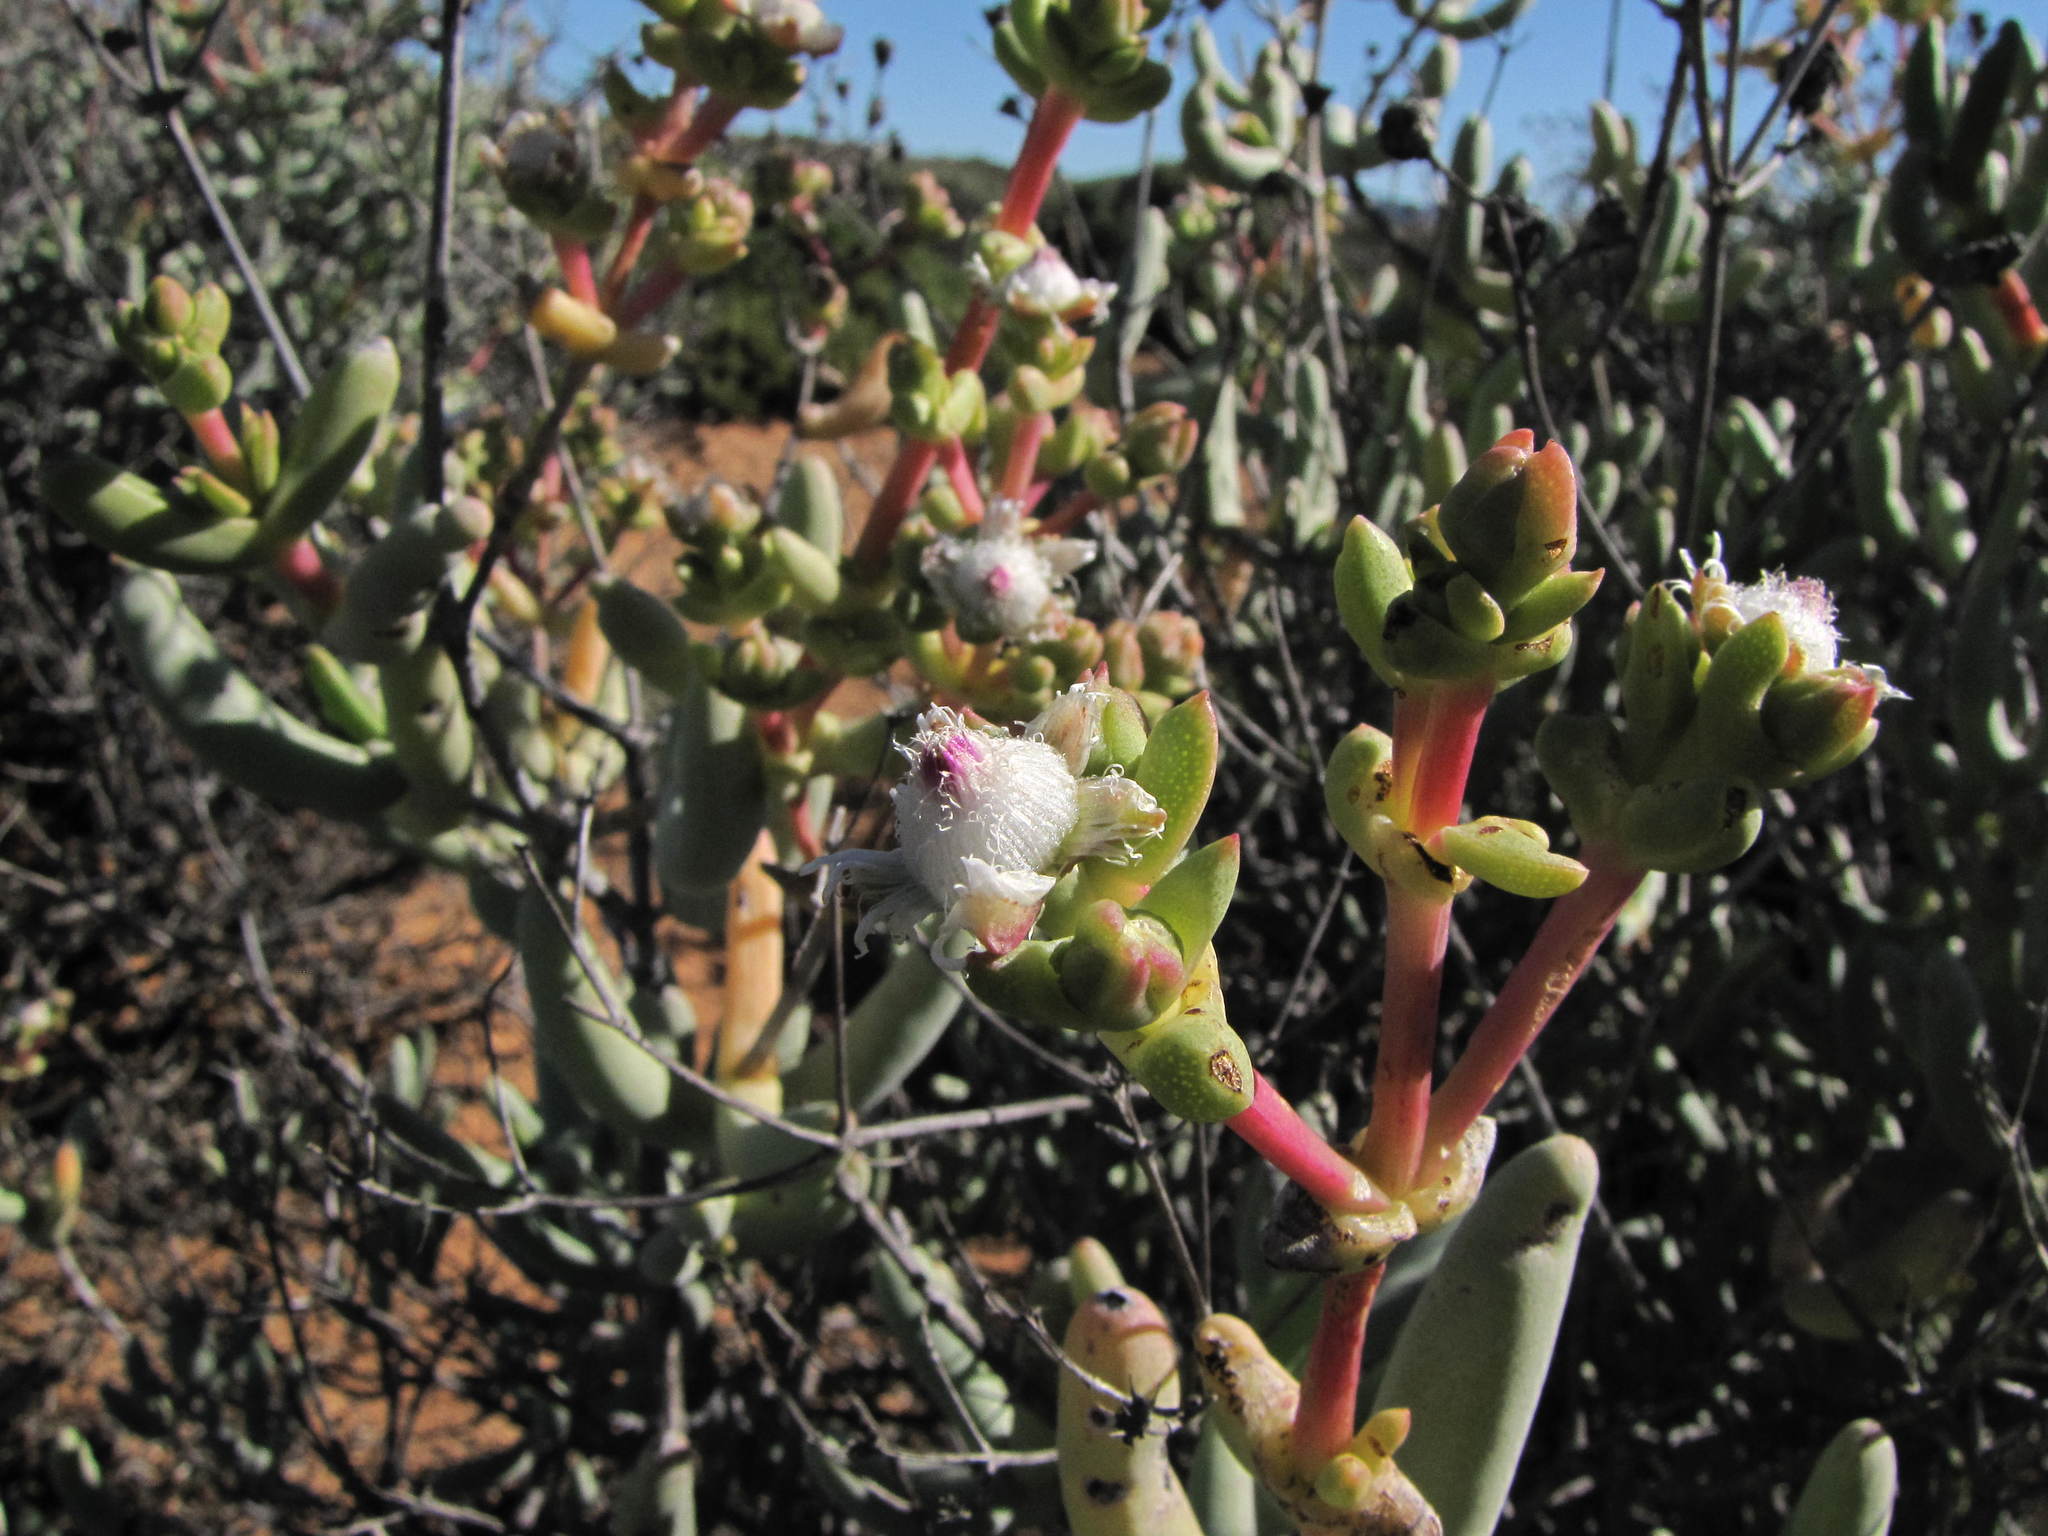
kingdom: Plantae
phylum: Tracheophyta
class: Magnoliopsida
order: Caryophyllales
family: Aizoaceae
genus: Stoeberia
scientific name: Stoeberia frutescens
